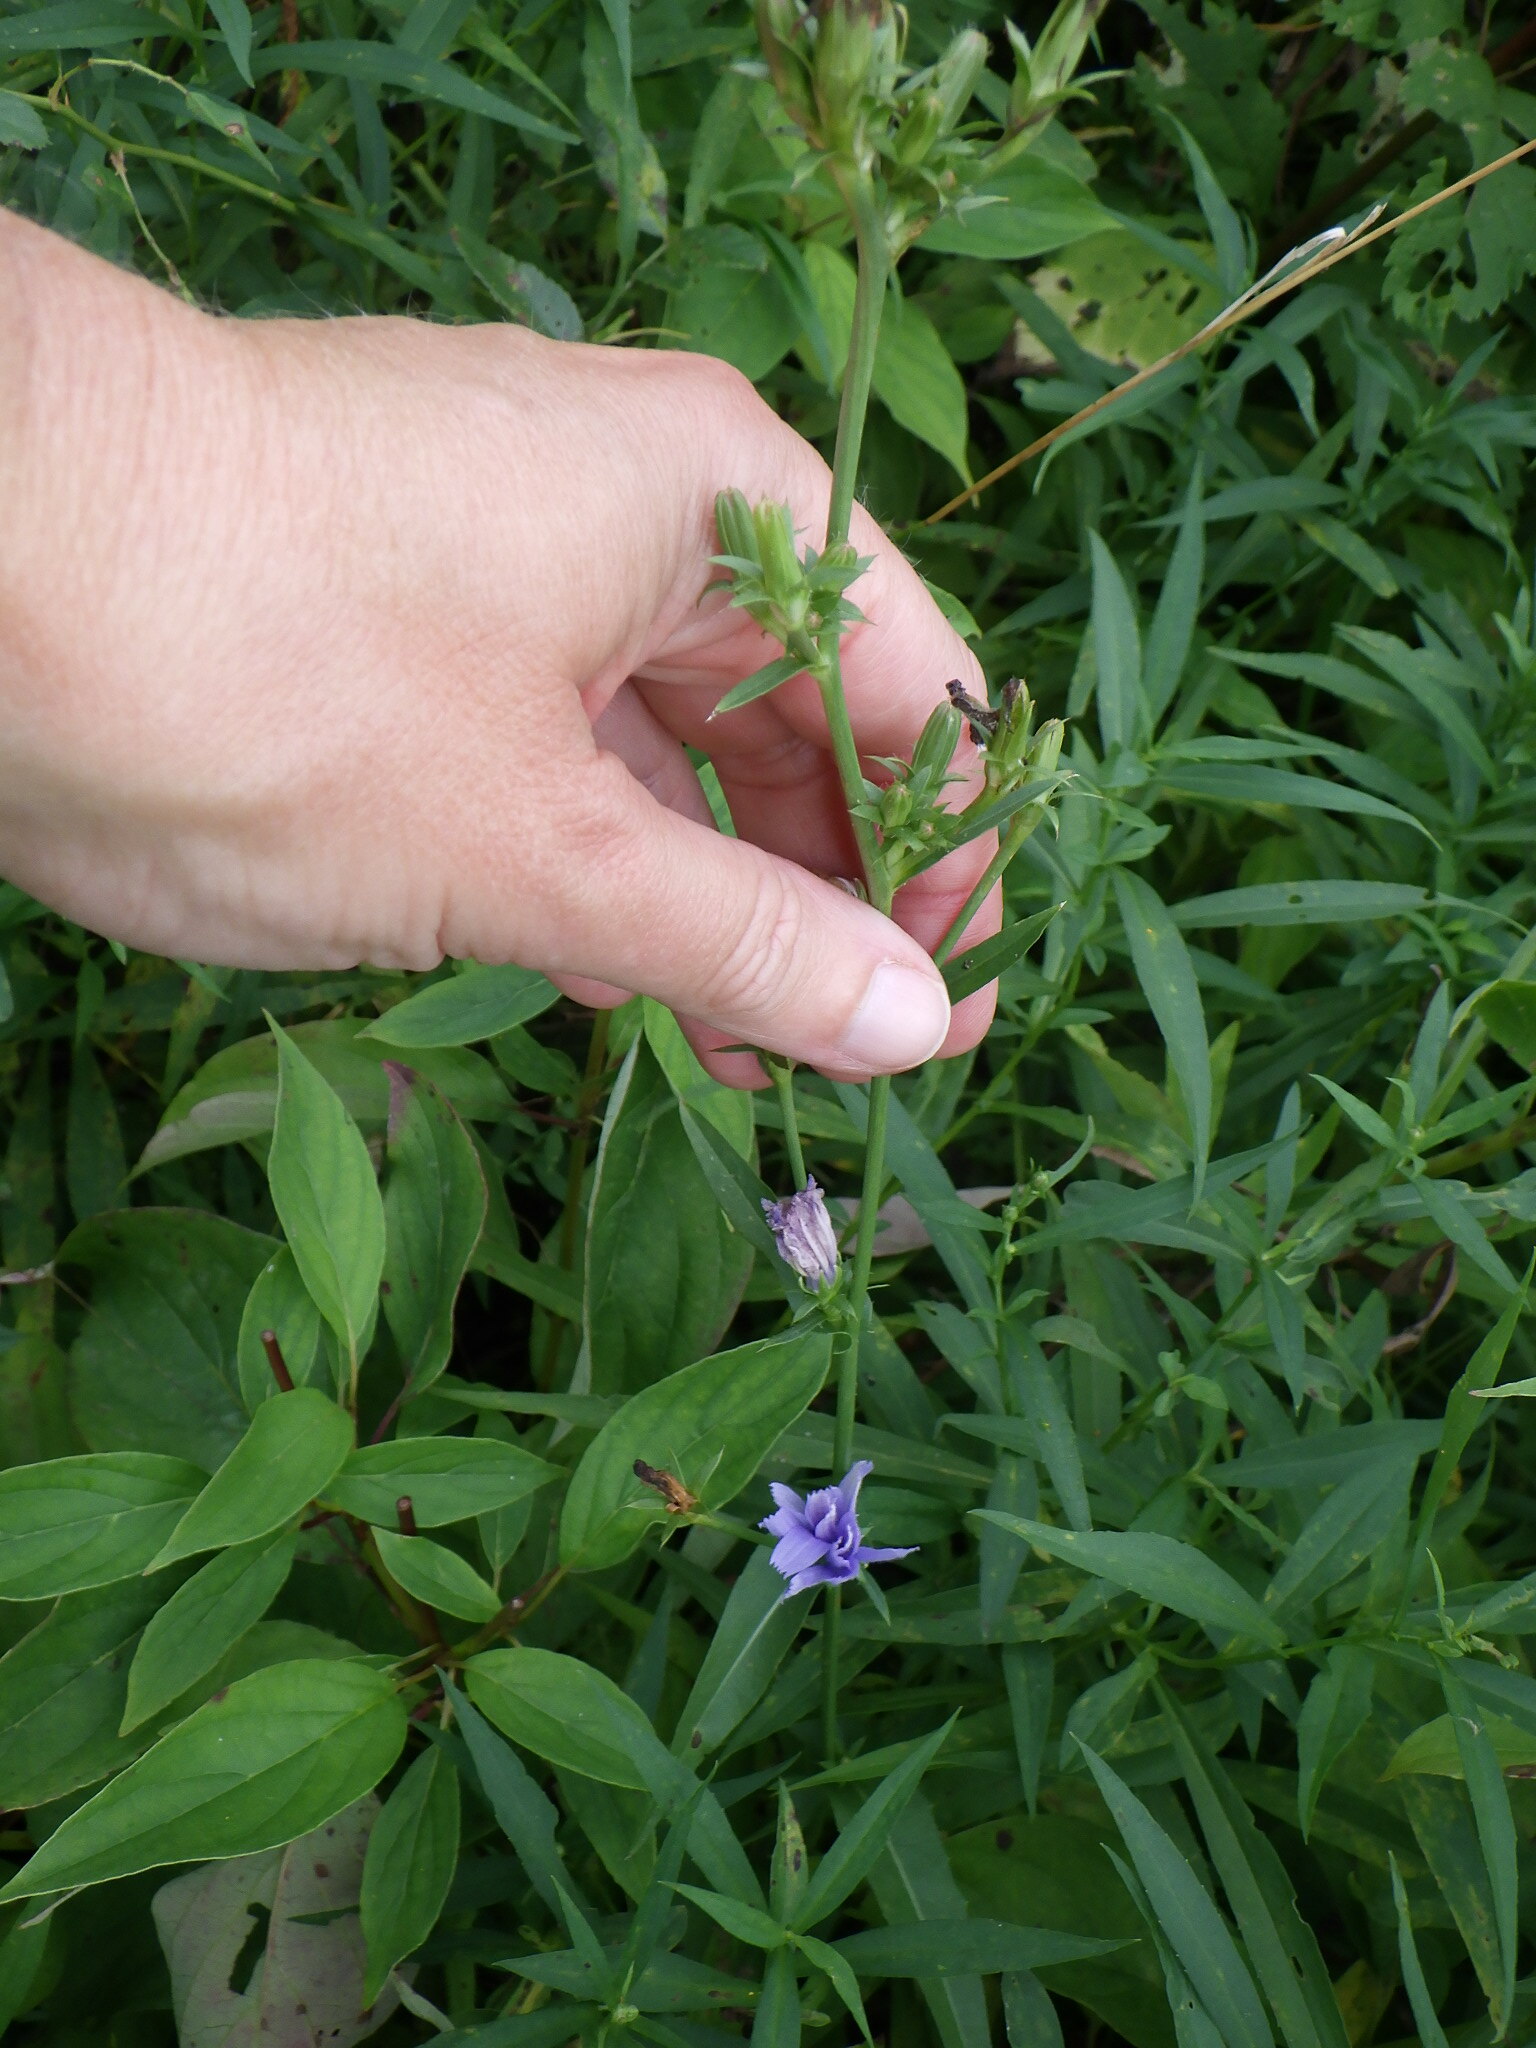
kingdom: Plantae
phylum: Tracheophyta
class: Magnoliopsida
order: Asterales
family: Asteraceae
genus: Cichorium
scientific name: Cichorium intybus
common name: Chicory
